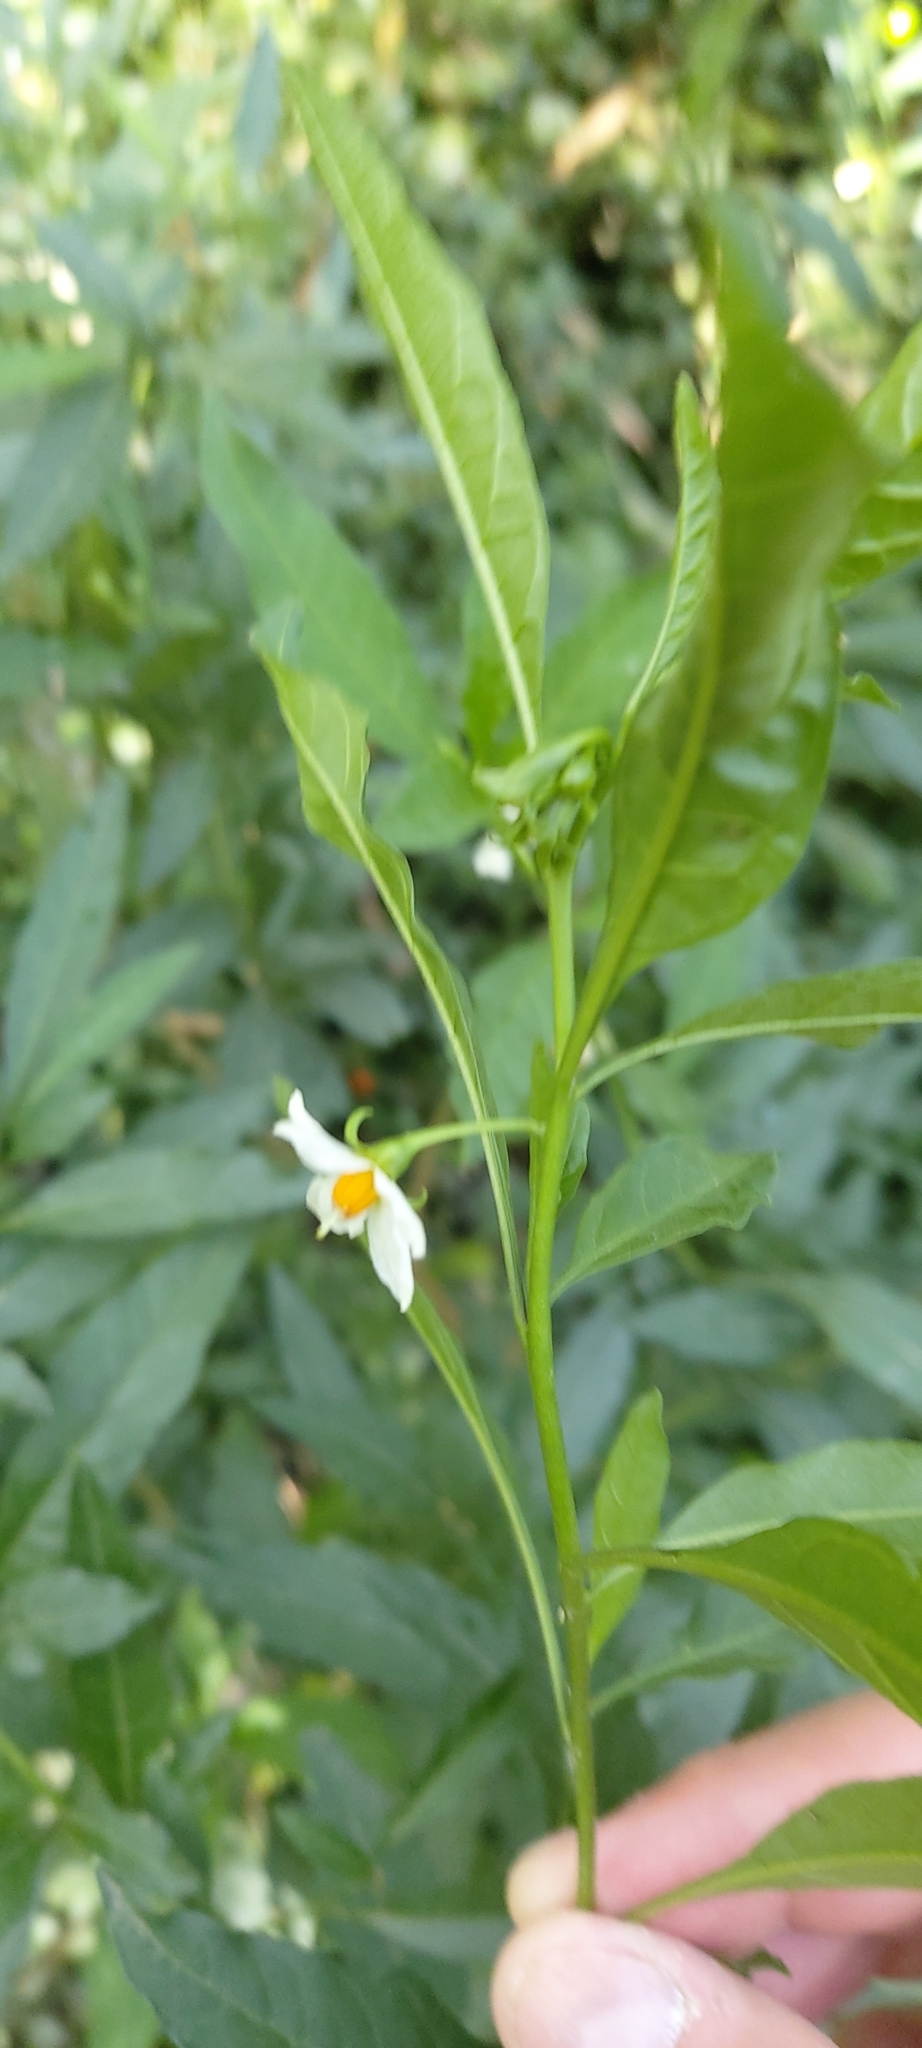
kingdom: Plantae
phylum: Tracheophyta
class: Magnoliopsida
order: Solanales
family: Solanaceae
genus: Solanum
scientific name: Solanum pseudocapsicum
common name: Jerusalem cherry
